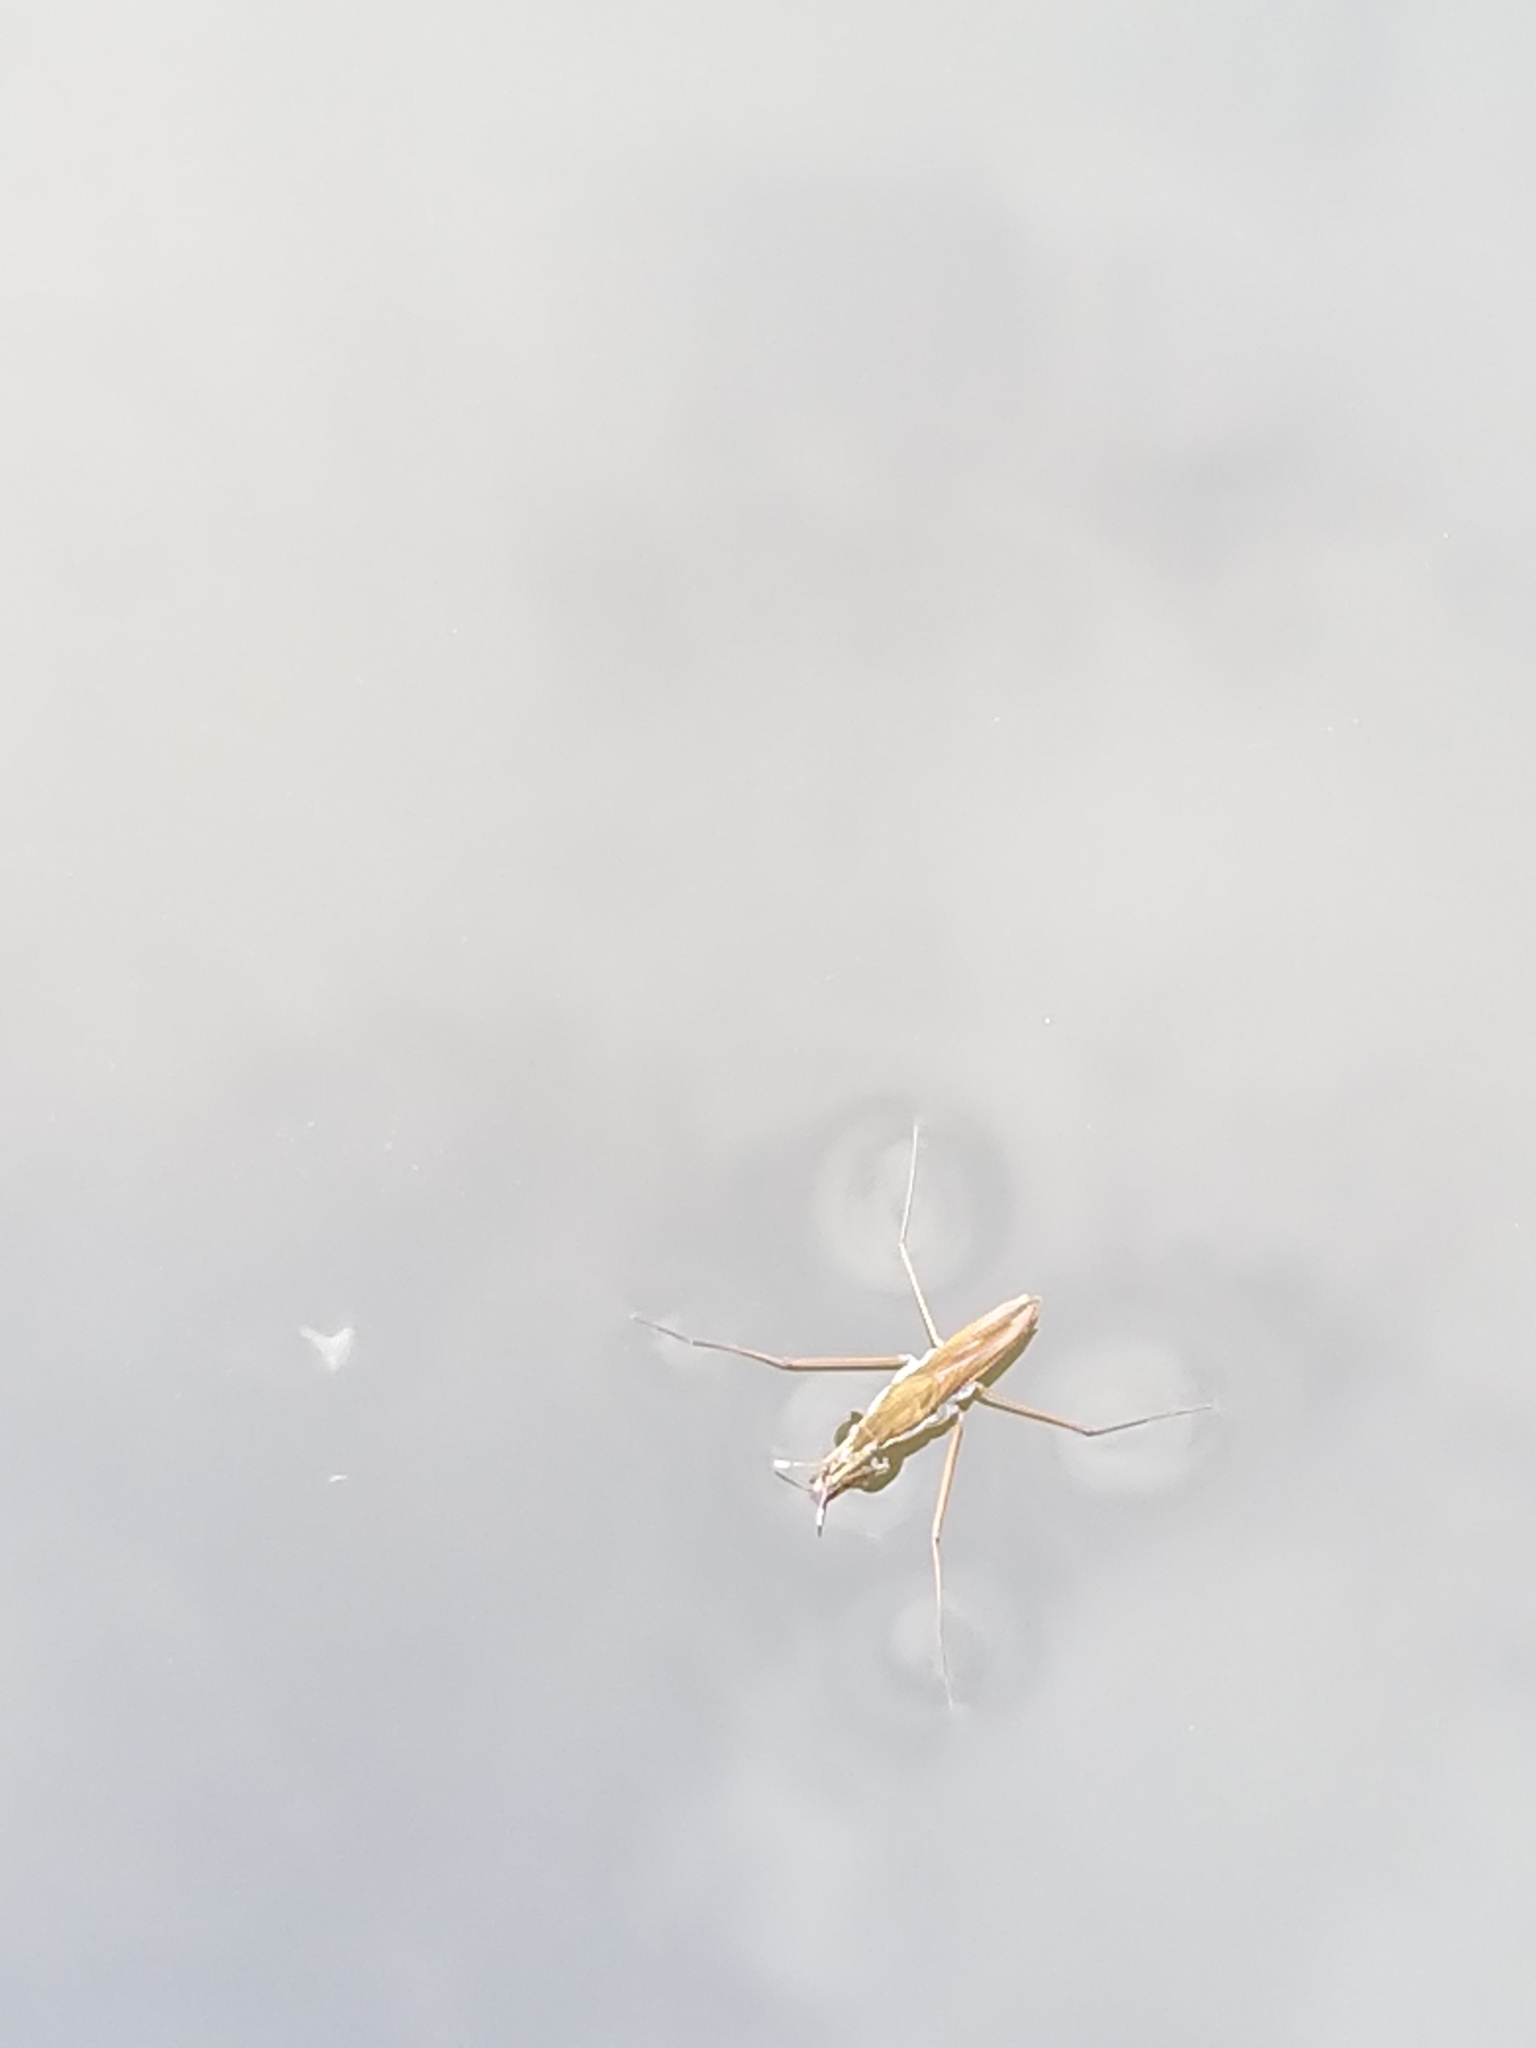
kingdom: Animalia
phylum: Arthropoda
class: Insecta
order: Hemiptera
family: Gerridae
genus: Gerris
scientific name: Gerris
